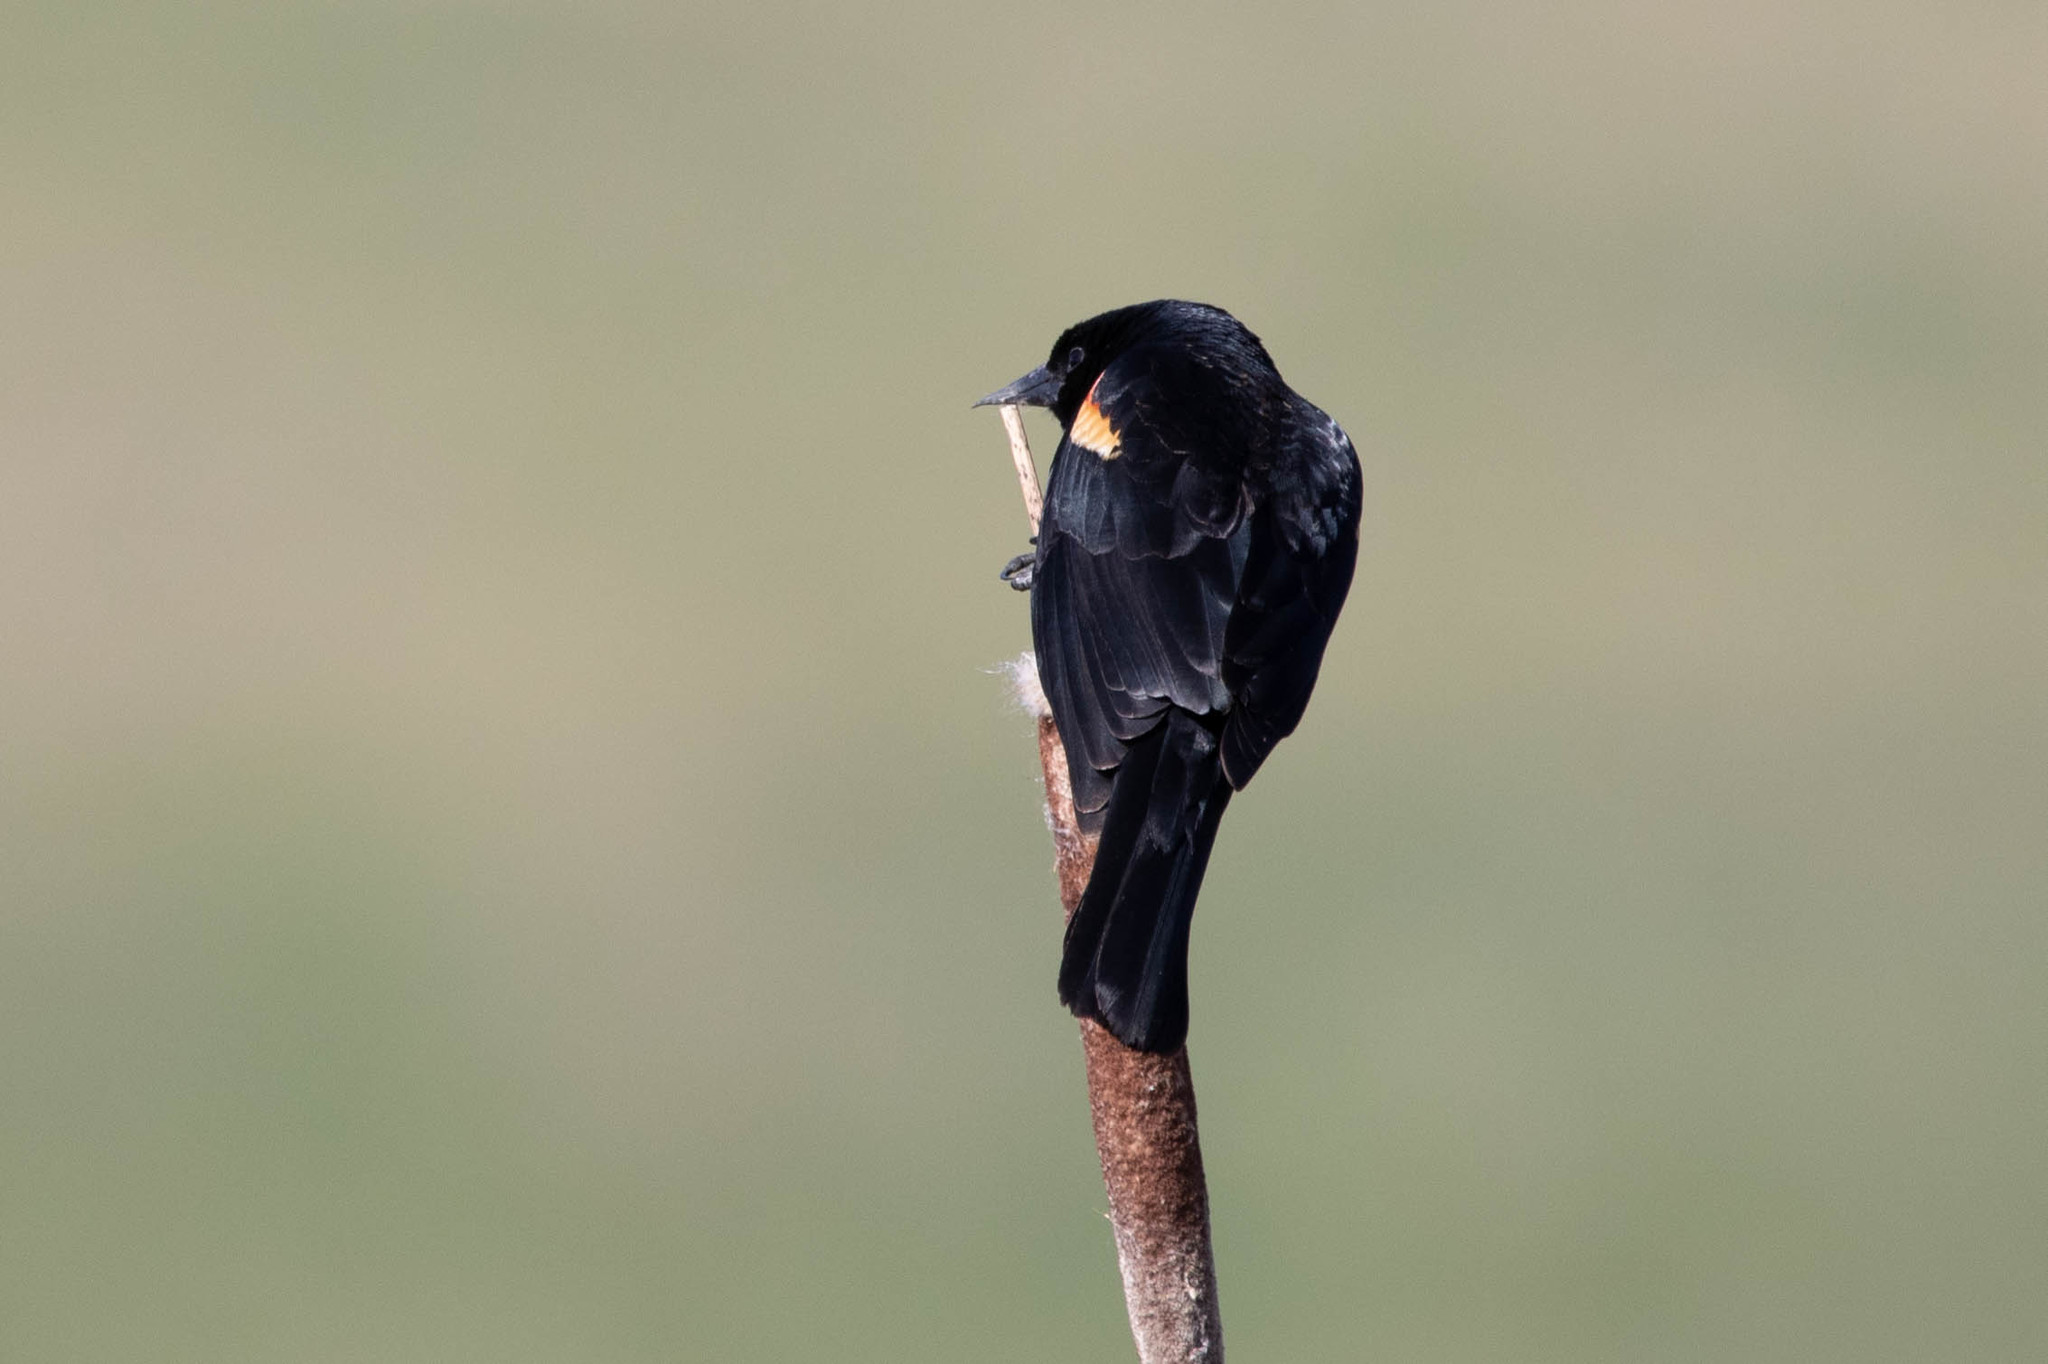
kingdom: Animalia
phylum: Chordata
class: Aves
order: Passeriformes
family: Icteridae
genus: Agelaius
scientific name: Agelaius phoeniceus
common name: Red-winged blackbird
